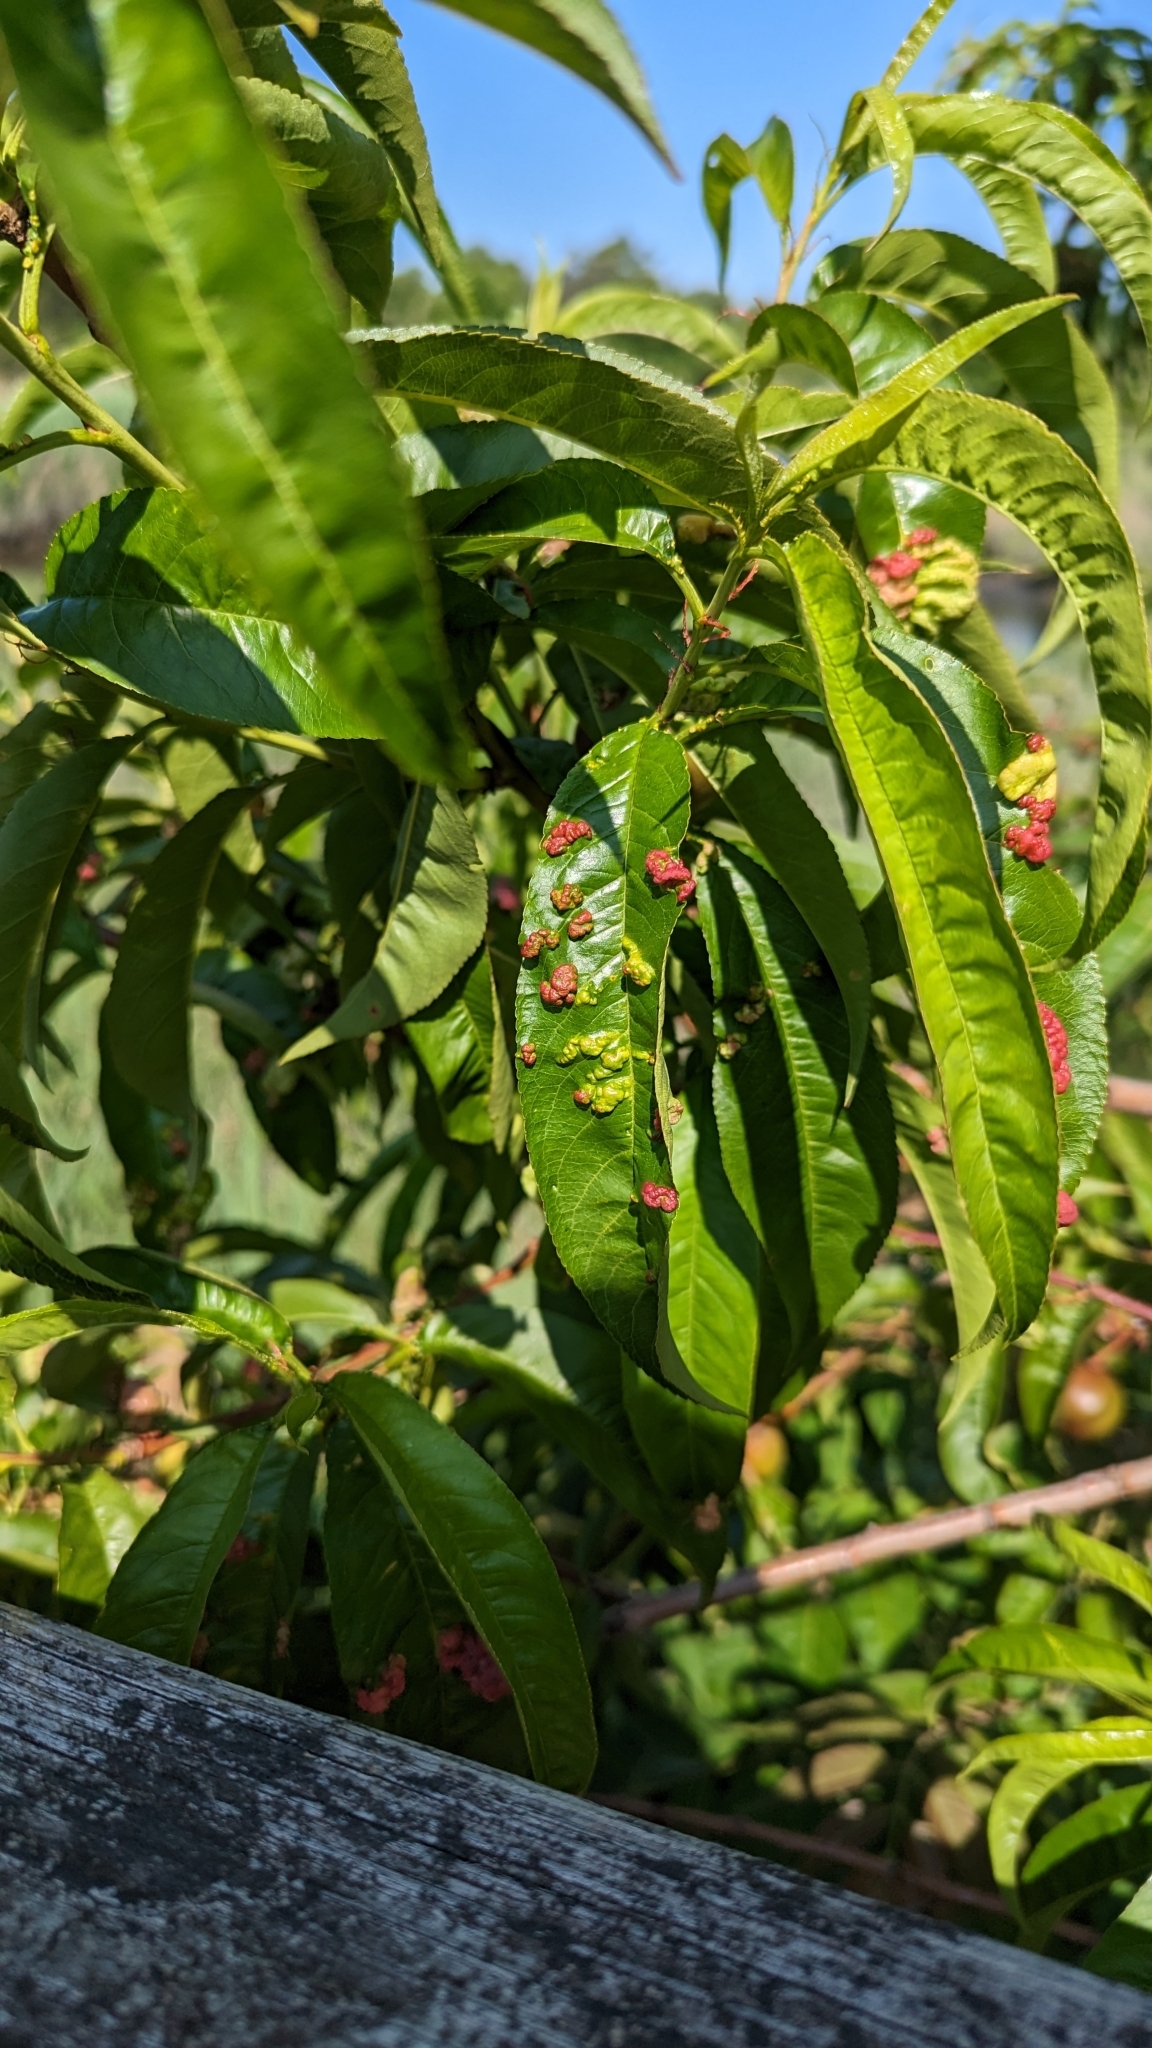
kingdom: Fungi
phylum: Ascomycota
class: Taphrinomycetes
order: Taphrinales
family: Taphrinaceae
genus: Taphrina
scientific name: Taphrina deformans
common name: Peach leaf curl
